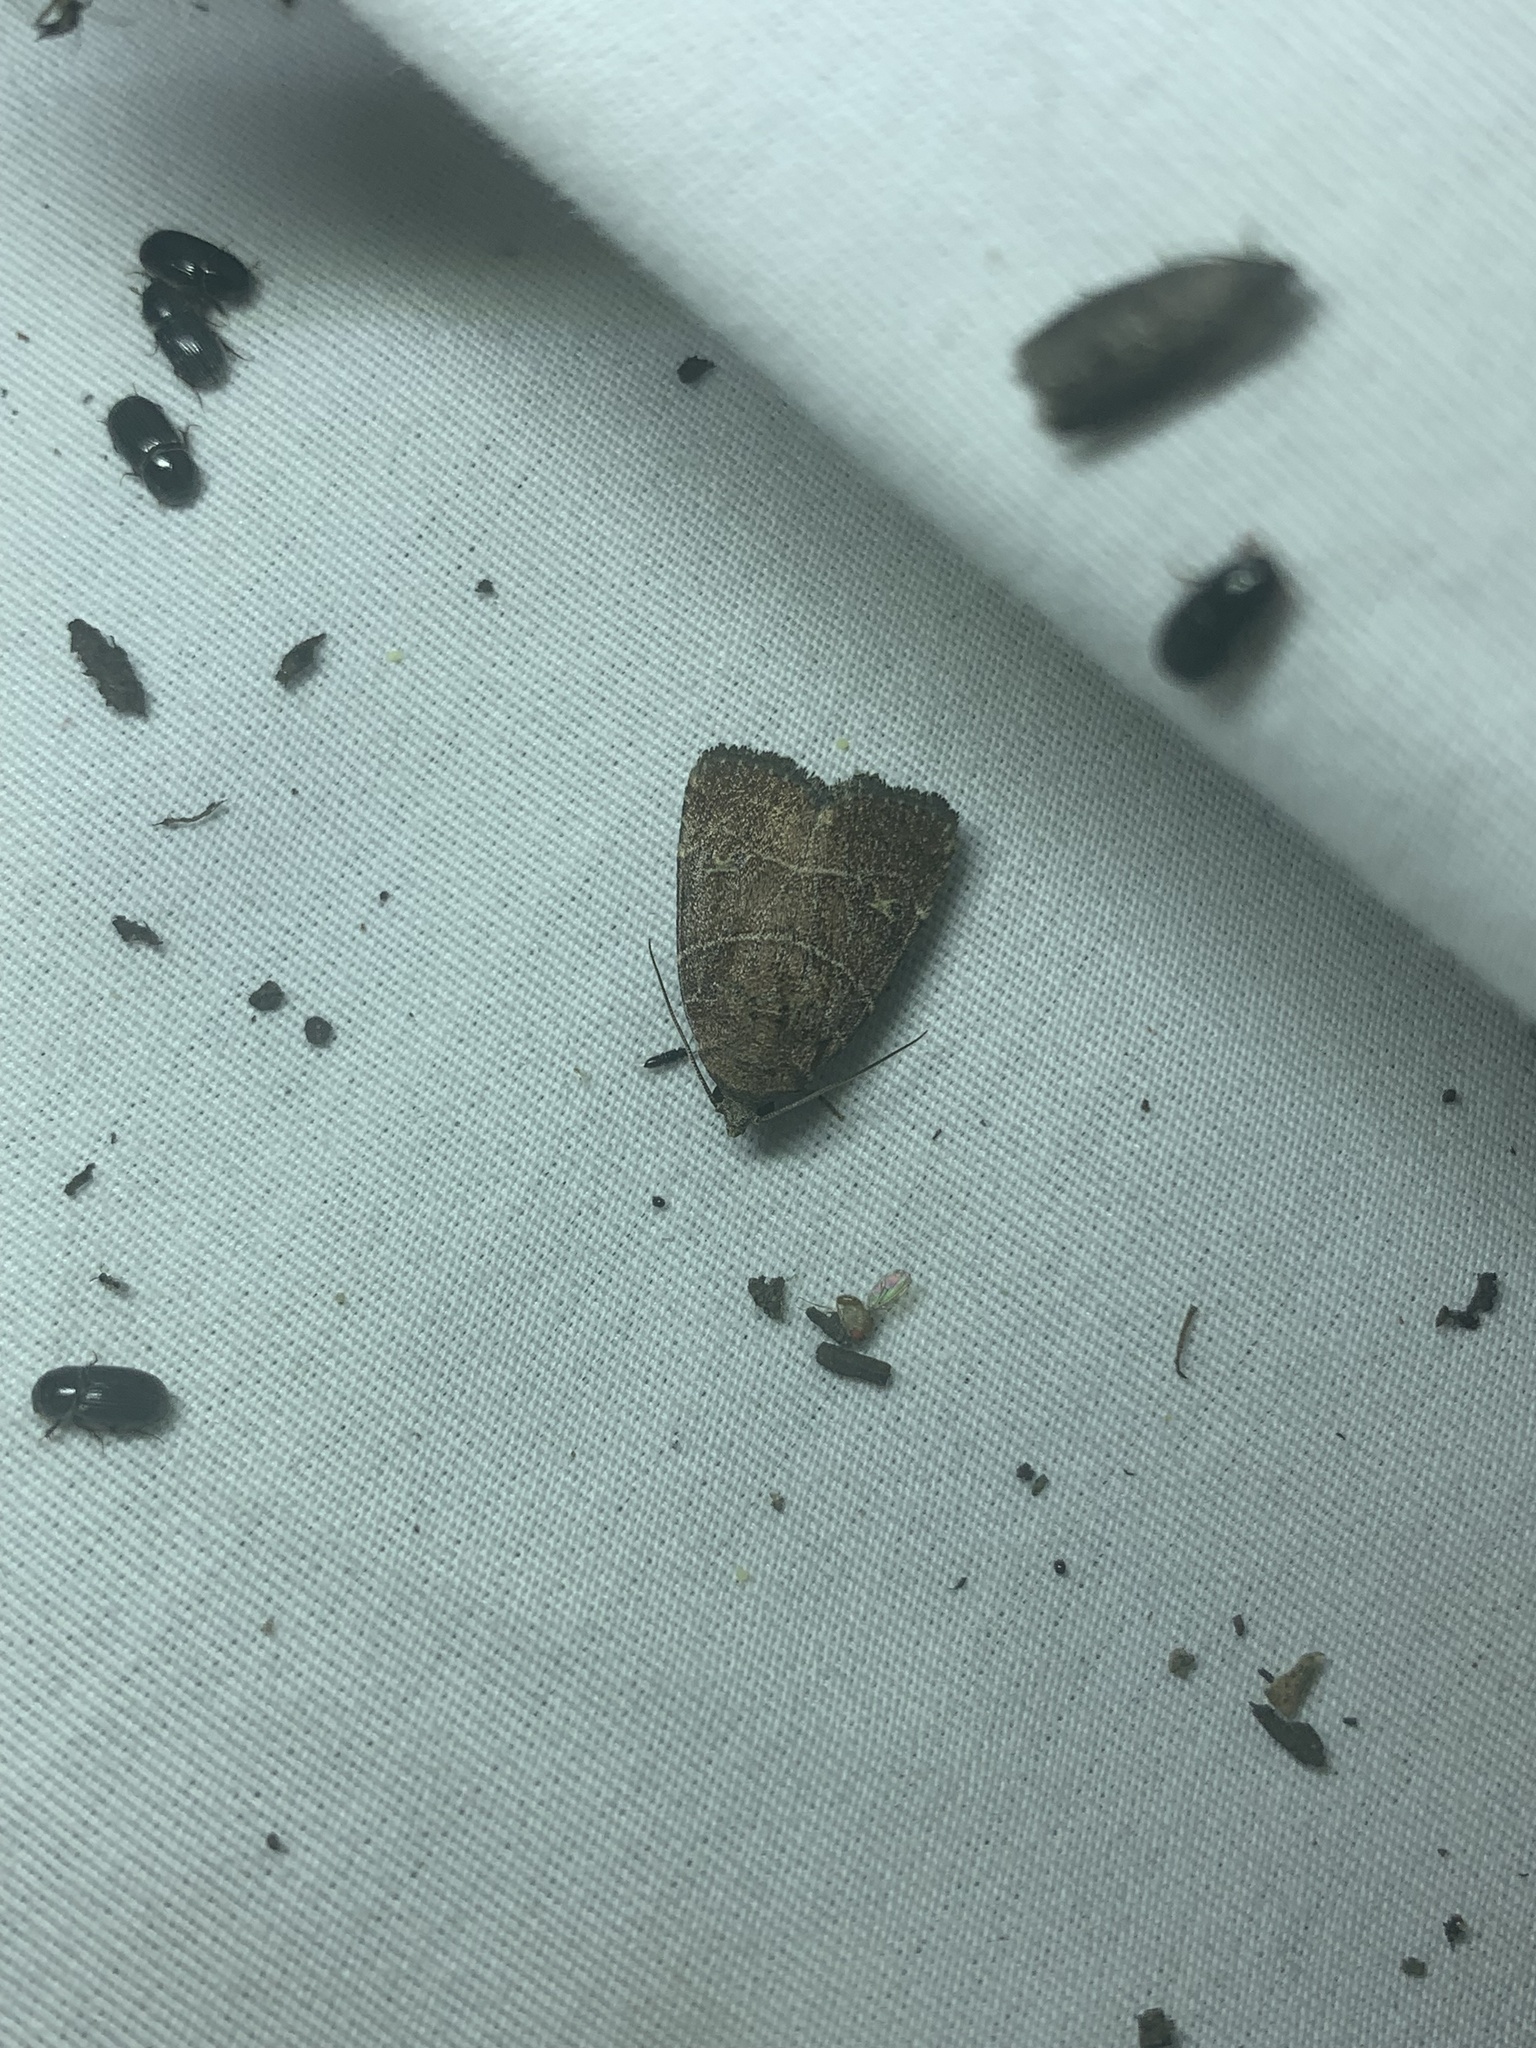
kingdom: Animalia
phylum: Arthropoda
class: Insecta
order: Lepidoptera
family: Noctuidae
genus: Elaphria
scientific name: Elaphria grata
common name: Grateful midget moth
